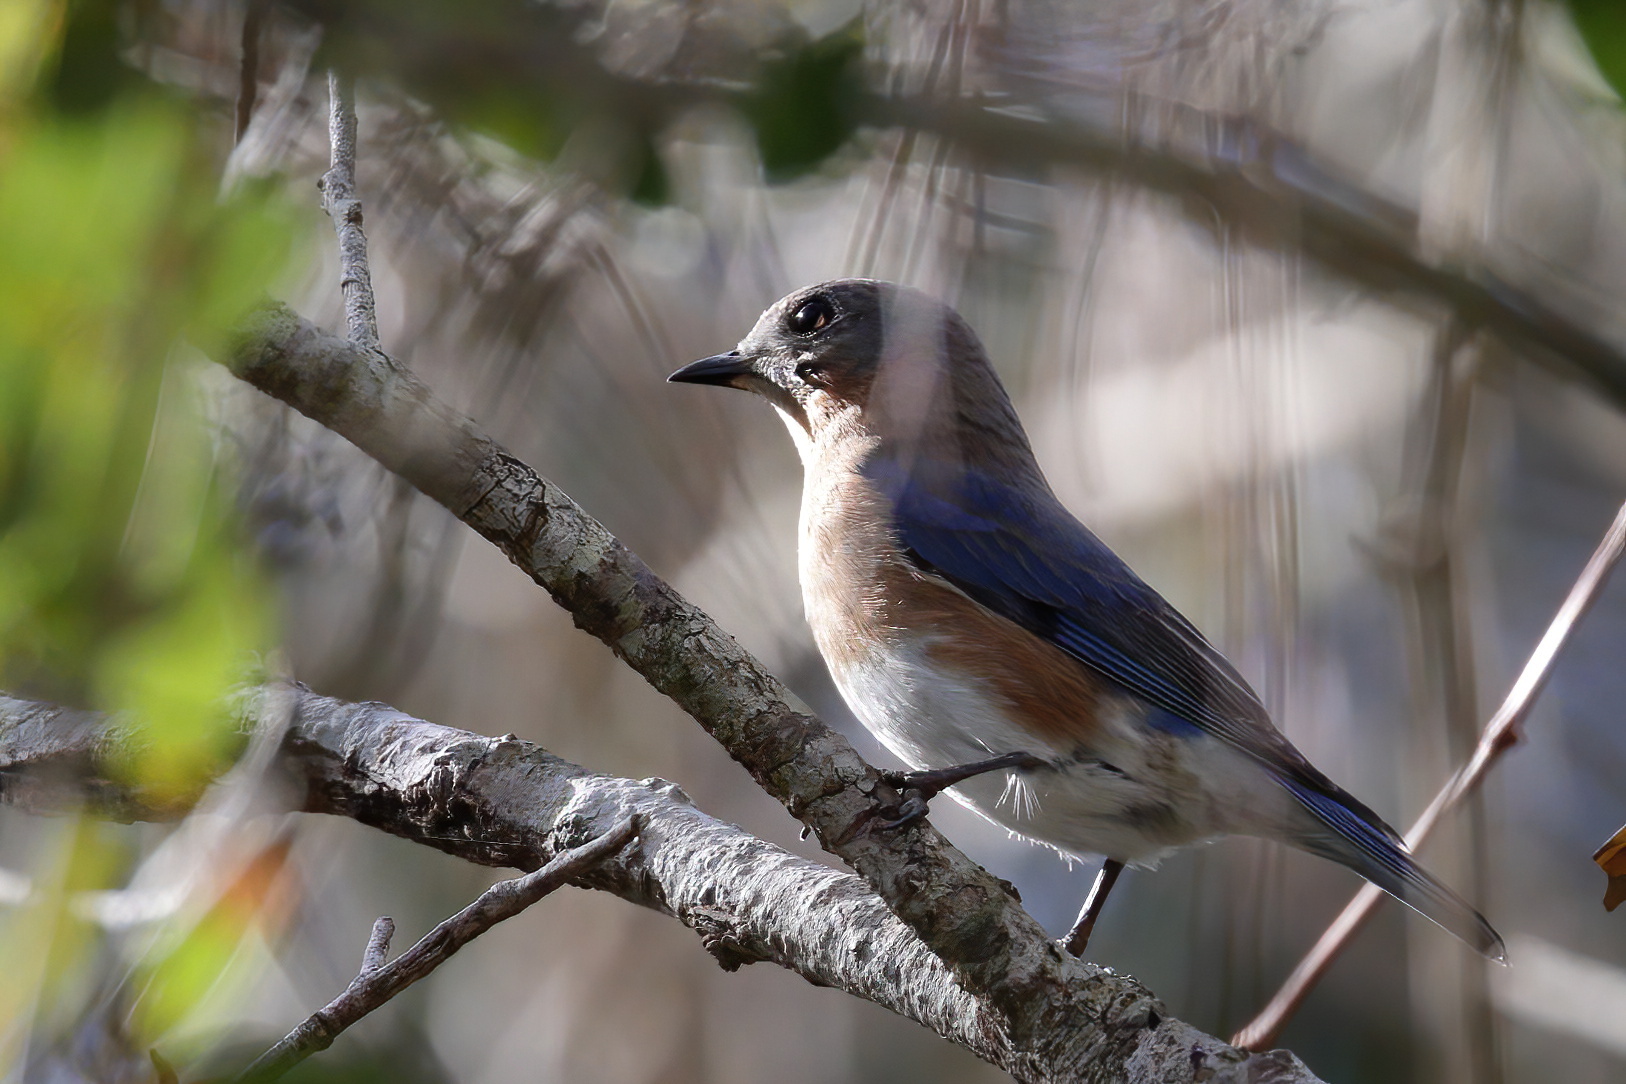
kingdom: Animalia
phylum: Chordata
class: Aves
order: Passeriformes
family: Turdidae
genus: Sialia
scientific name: Sialia sialis
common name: Eastern bluebird
